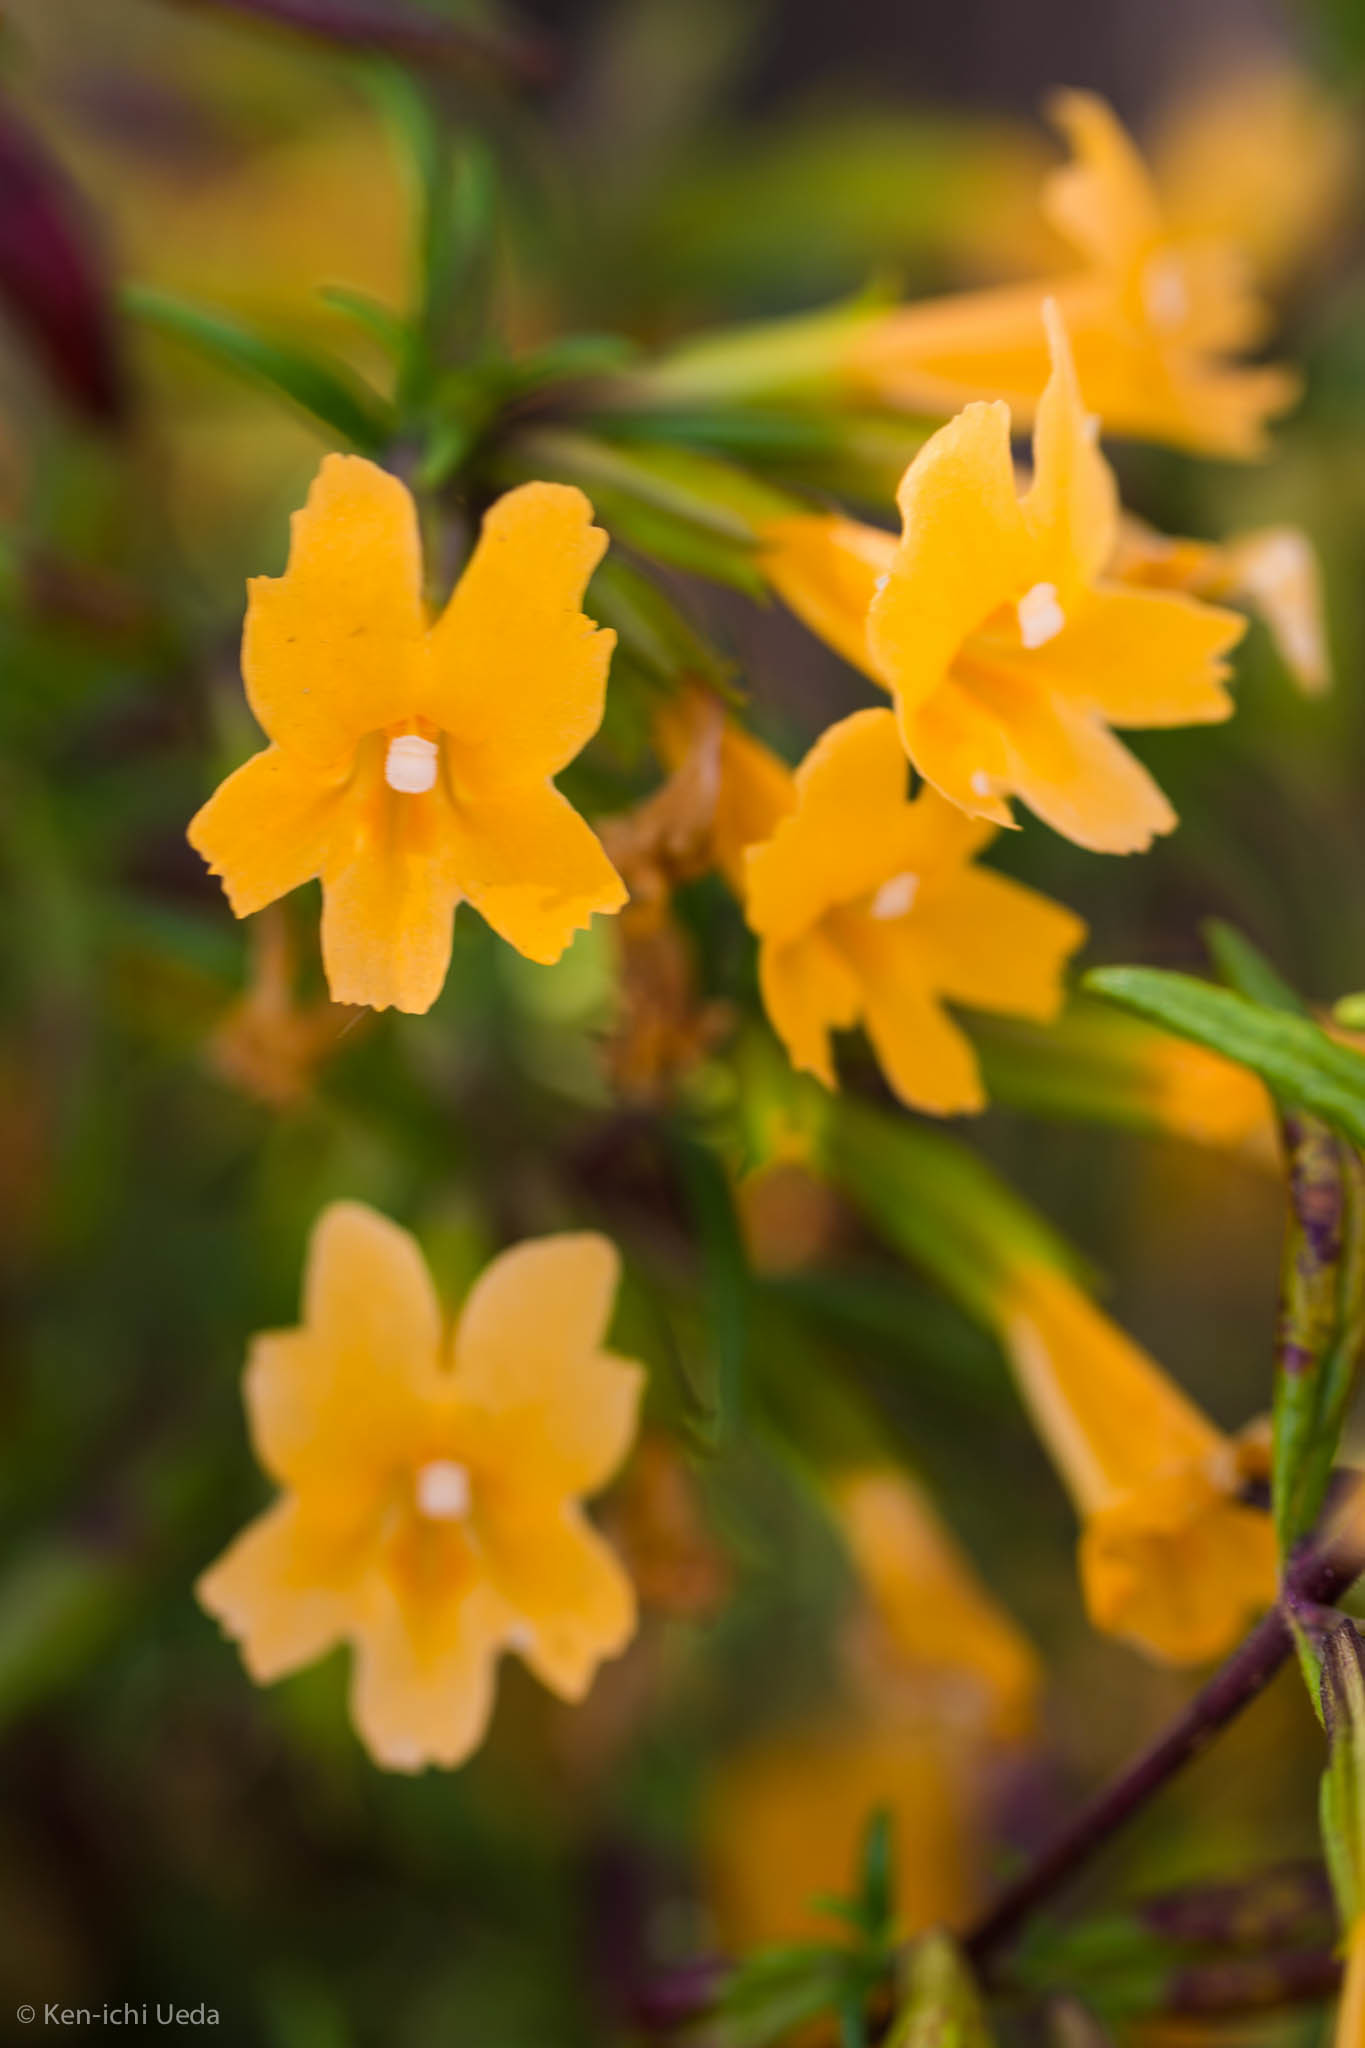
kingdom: Plantae
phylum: Tracheophyta
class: Magnoliopsida
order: Lamiales
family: Phrymaceae
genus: Diplacus
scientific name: Diplacus aurantiacus
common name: Bush monkey-flower
